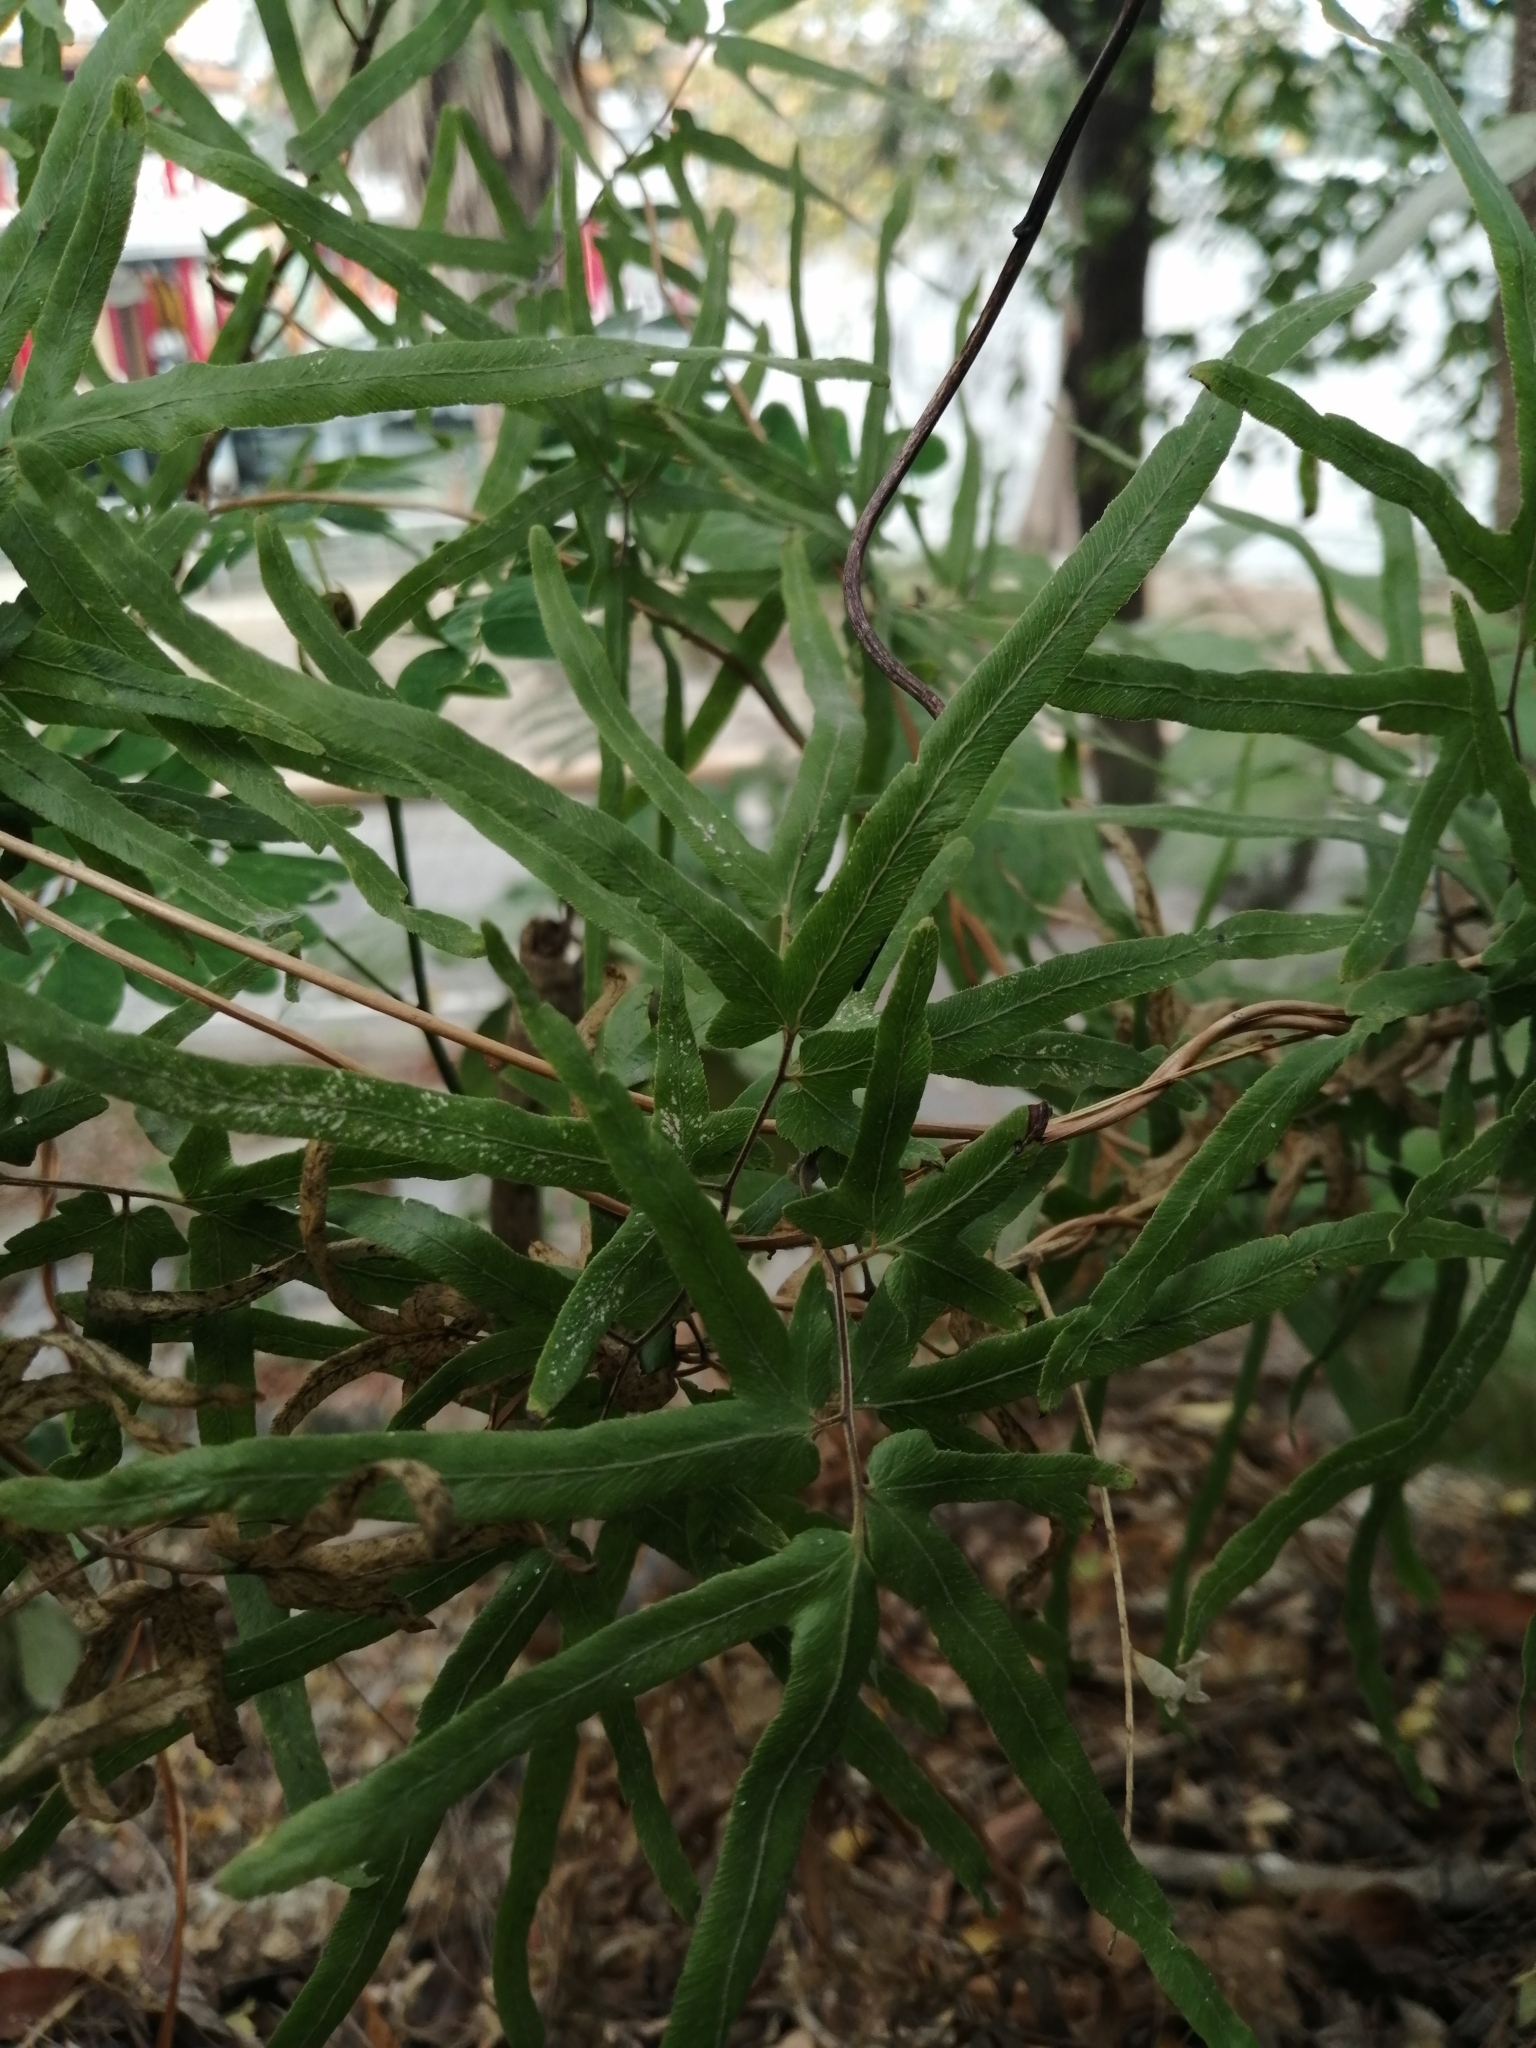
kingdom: Plantae
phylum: Tracheophyta
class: Polypodiopsida
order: Schizaeales
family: Lygodiaceae
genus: Lygodium
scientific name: Lygodium japonicum
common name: Japanese climbing fern
